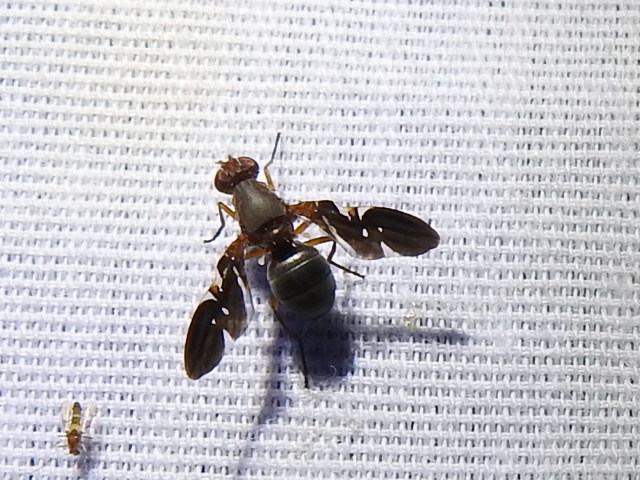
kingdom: Animalia
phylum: Arthropoda
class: Insecta
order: Diptera
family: Ulidiidae
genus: Delphinia
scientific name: Delphinia picta
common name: Common picture-winged fly
